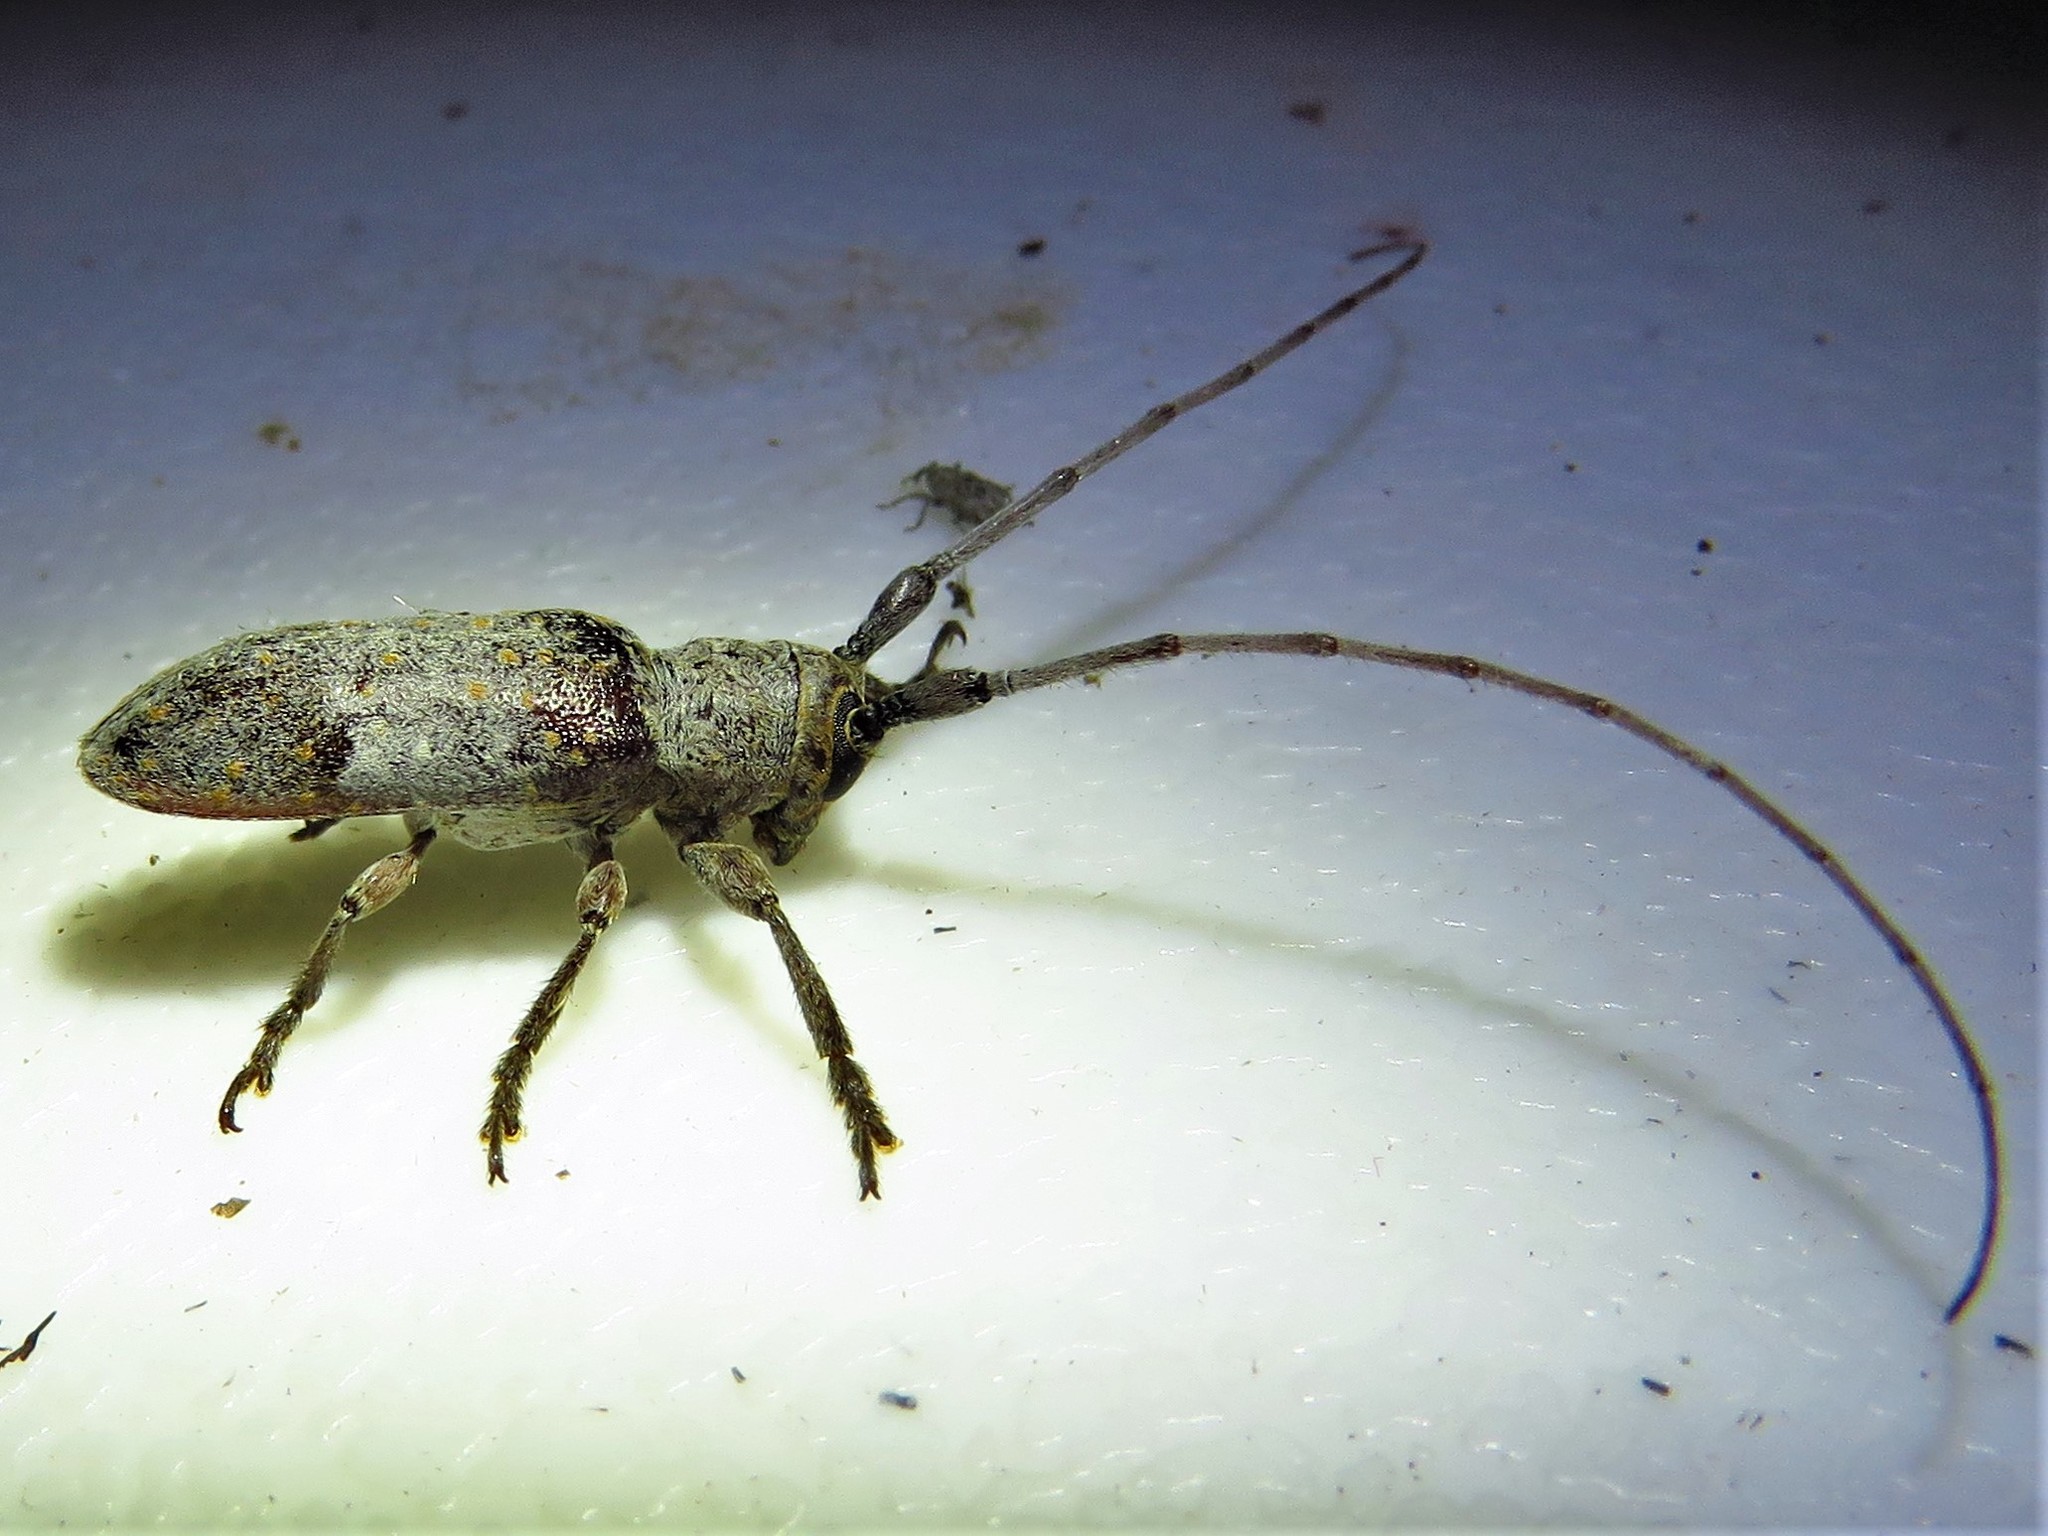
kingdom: Animalia
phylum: Arthropoda
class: Insecta
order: Coleoptera
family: Cerambycidae
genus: Oncideres
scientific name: Oncideres cingulata
